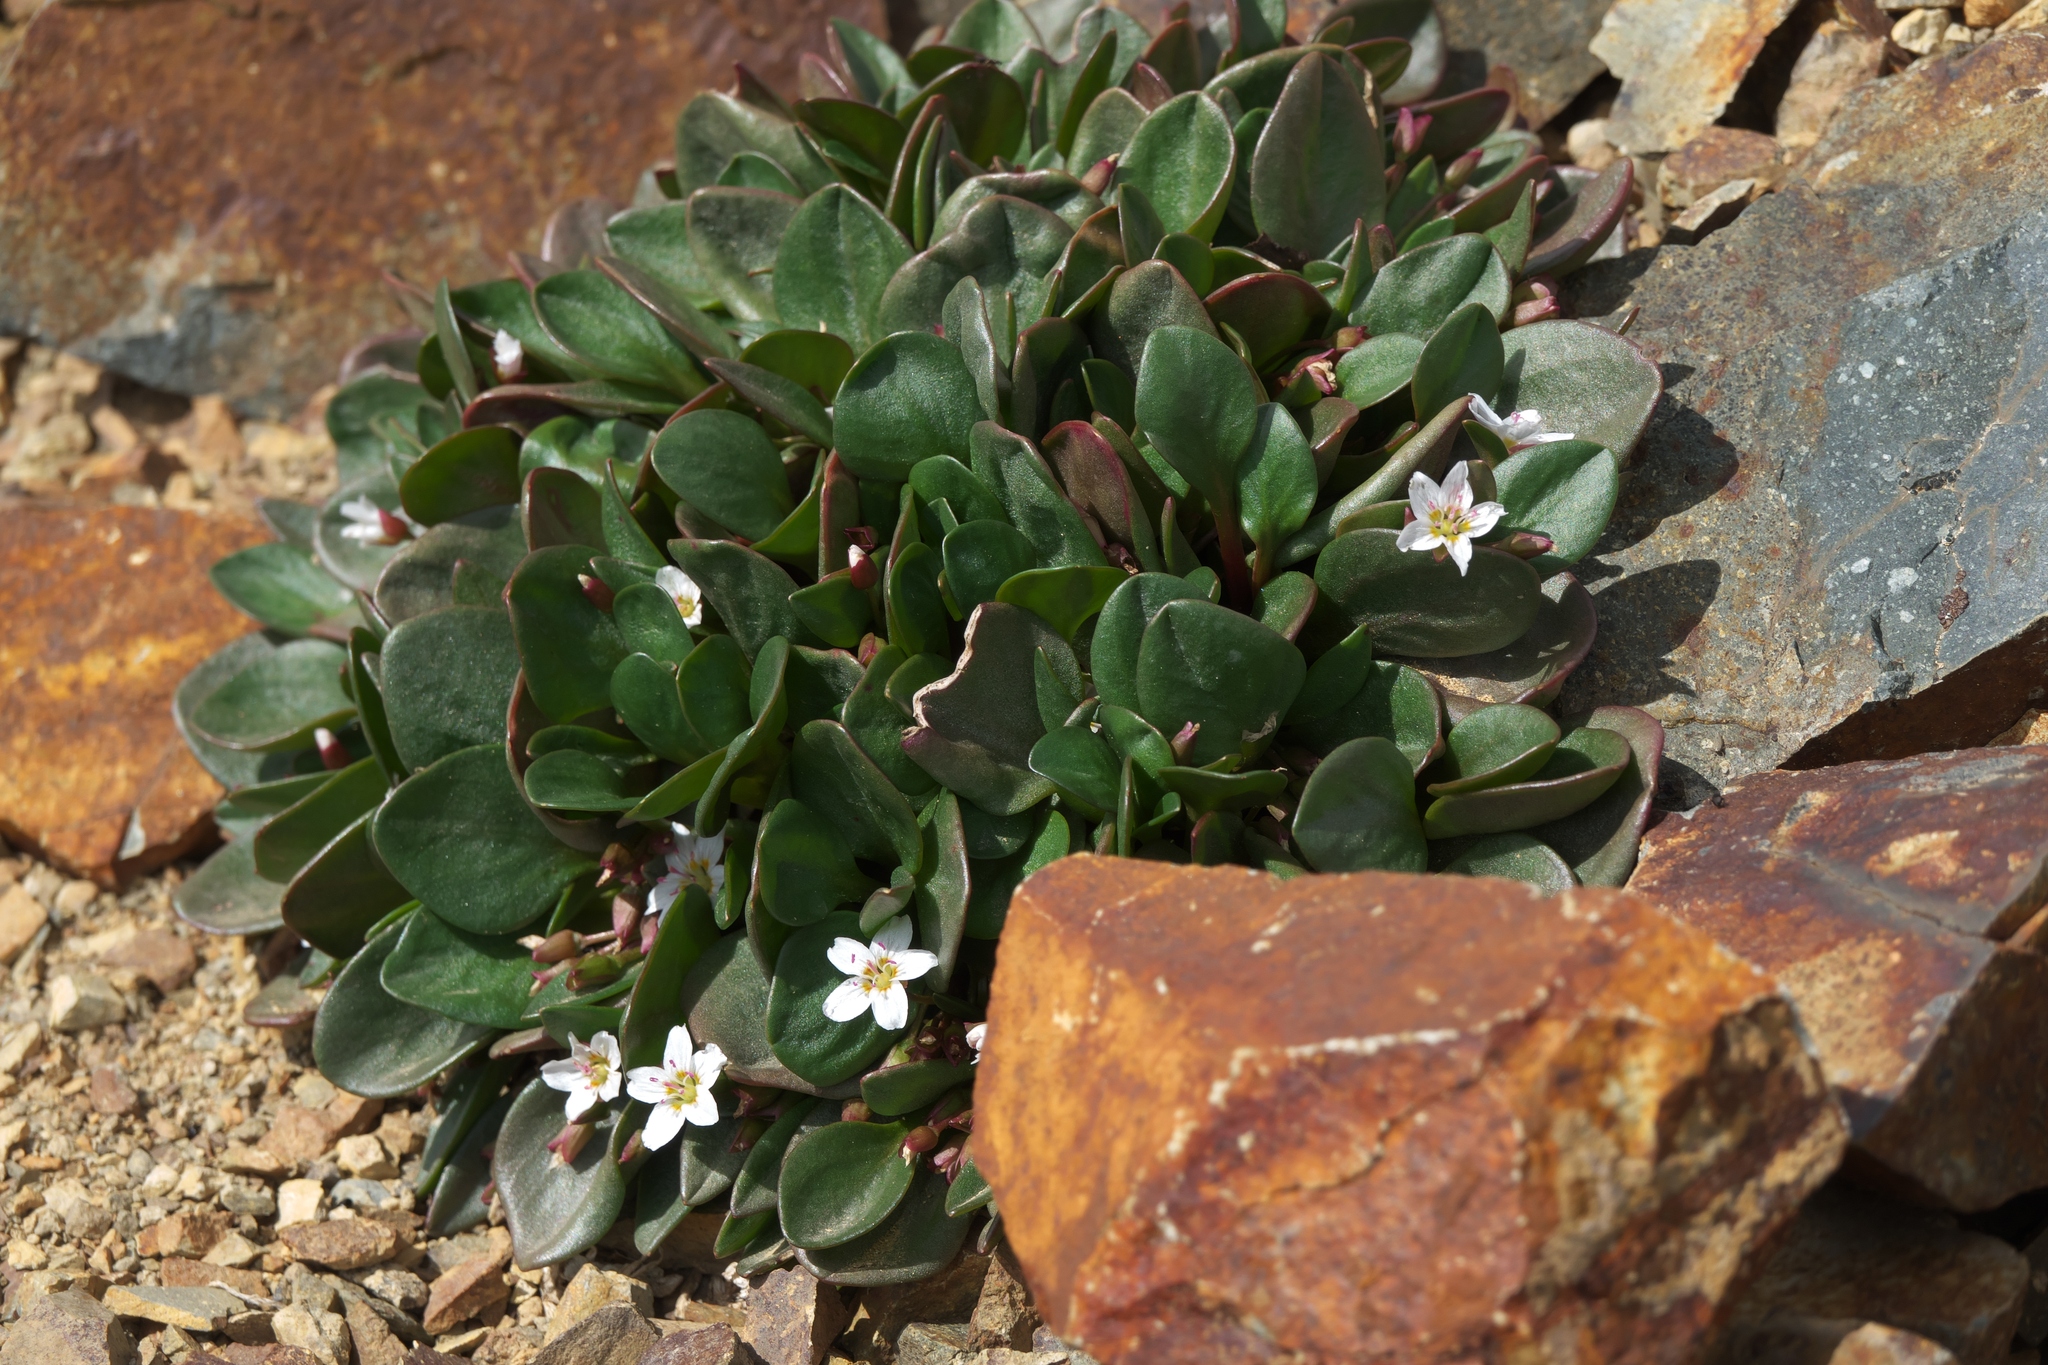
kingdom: Plantae
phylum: Tracheophyta
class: Magnoliopsida
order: Caryophyllales
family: Montiaceae
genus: Claytonia
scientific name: Claytonia megarhiza
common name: Alpine spring beauty
